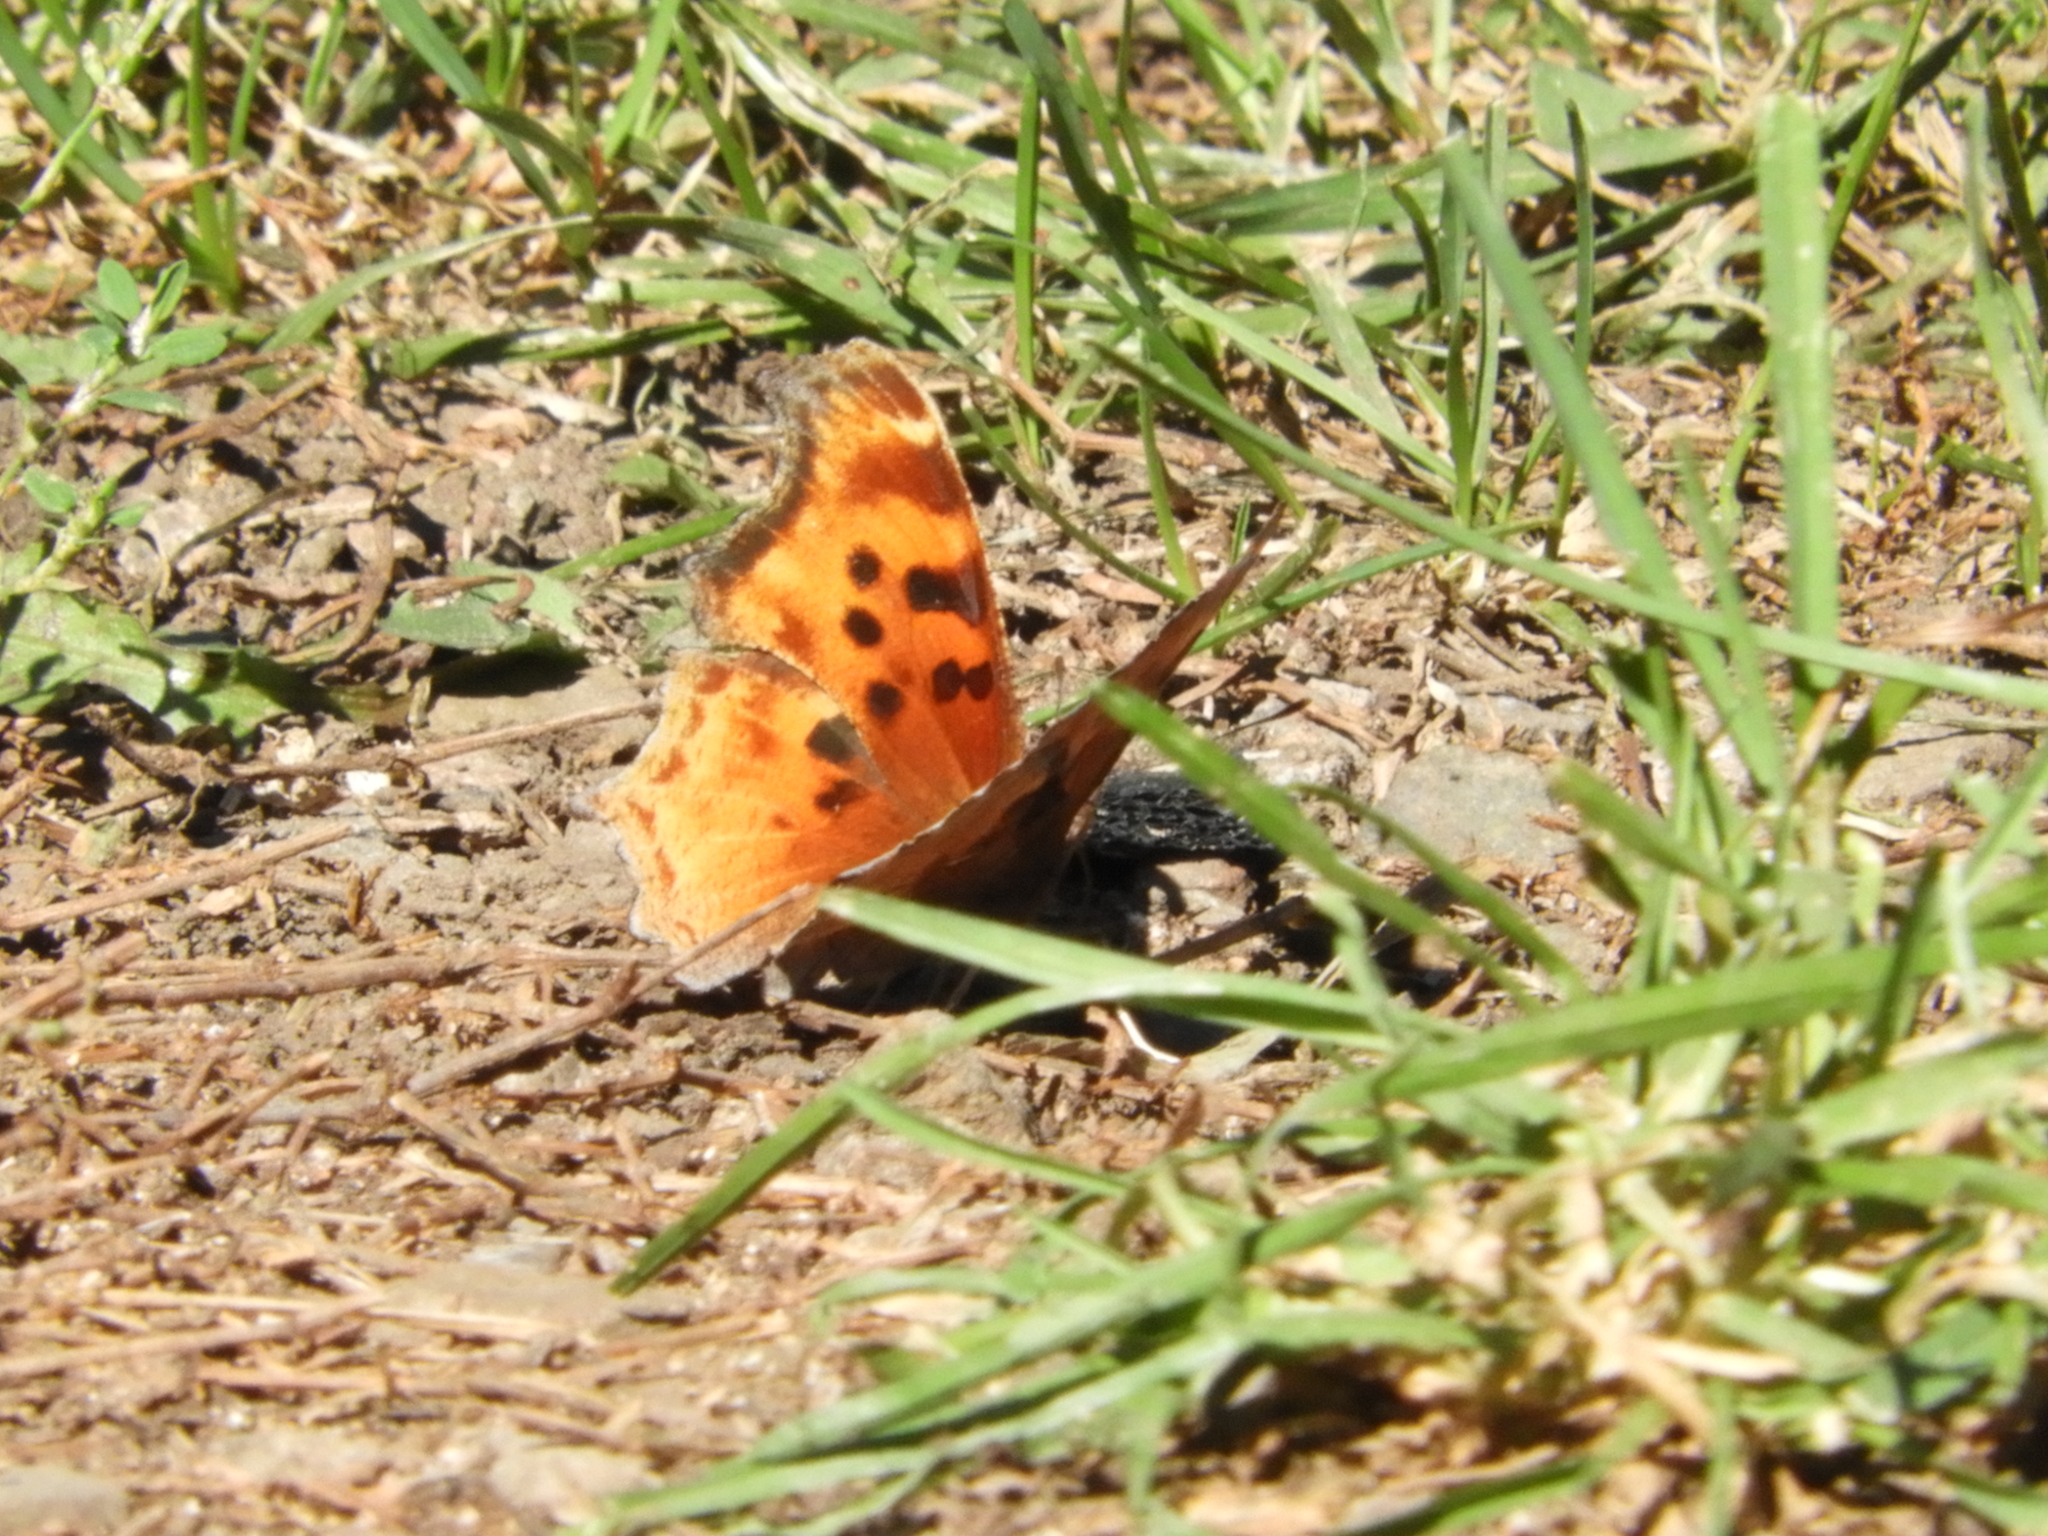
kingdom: Animalia
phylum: Arthropoda
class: Insecta
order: Lepidoptera
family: Nymphalidae
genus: Polygonia
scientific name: Polygonia satyrus
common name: Satyr angle wing
